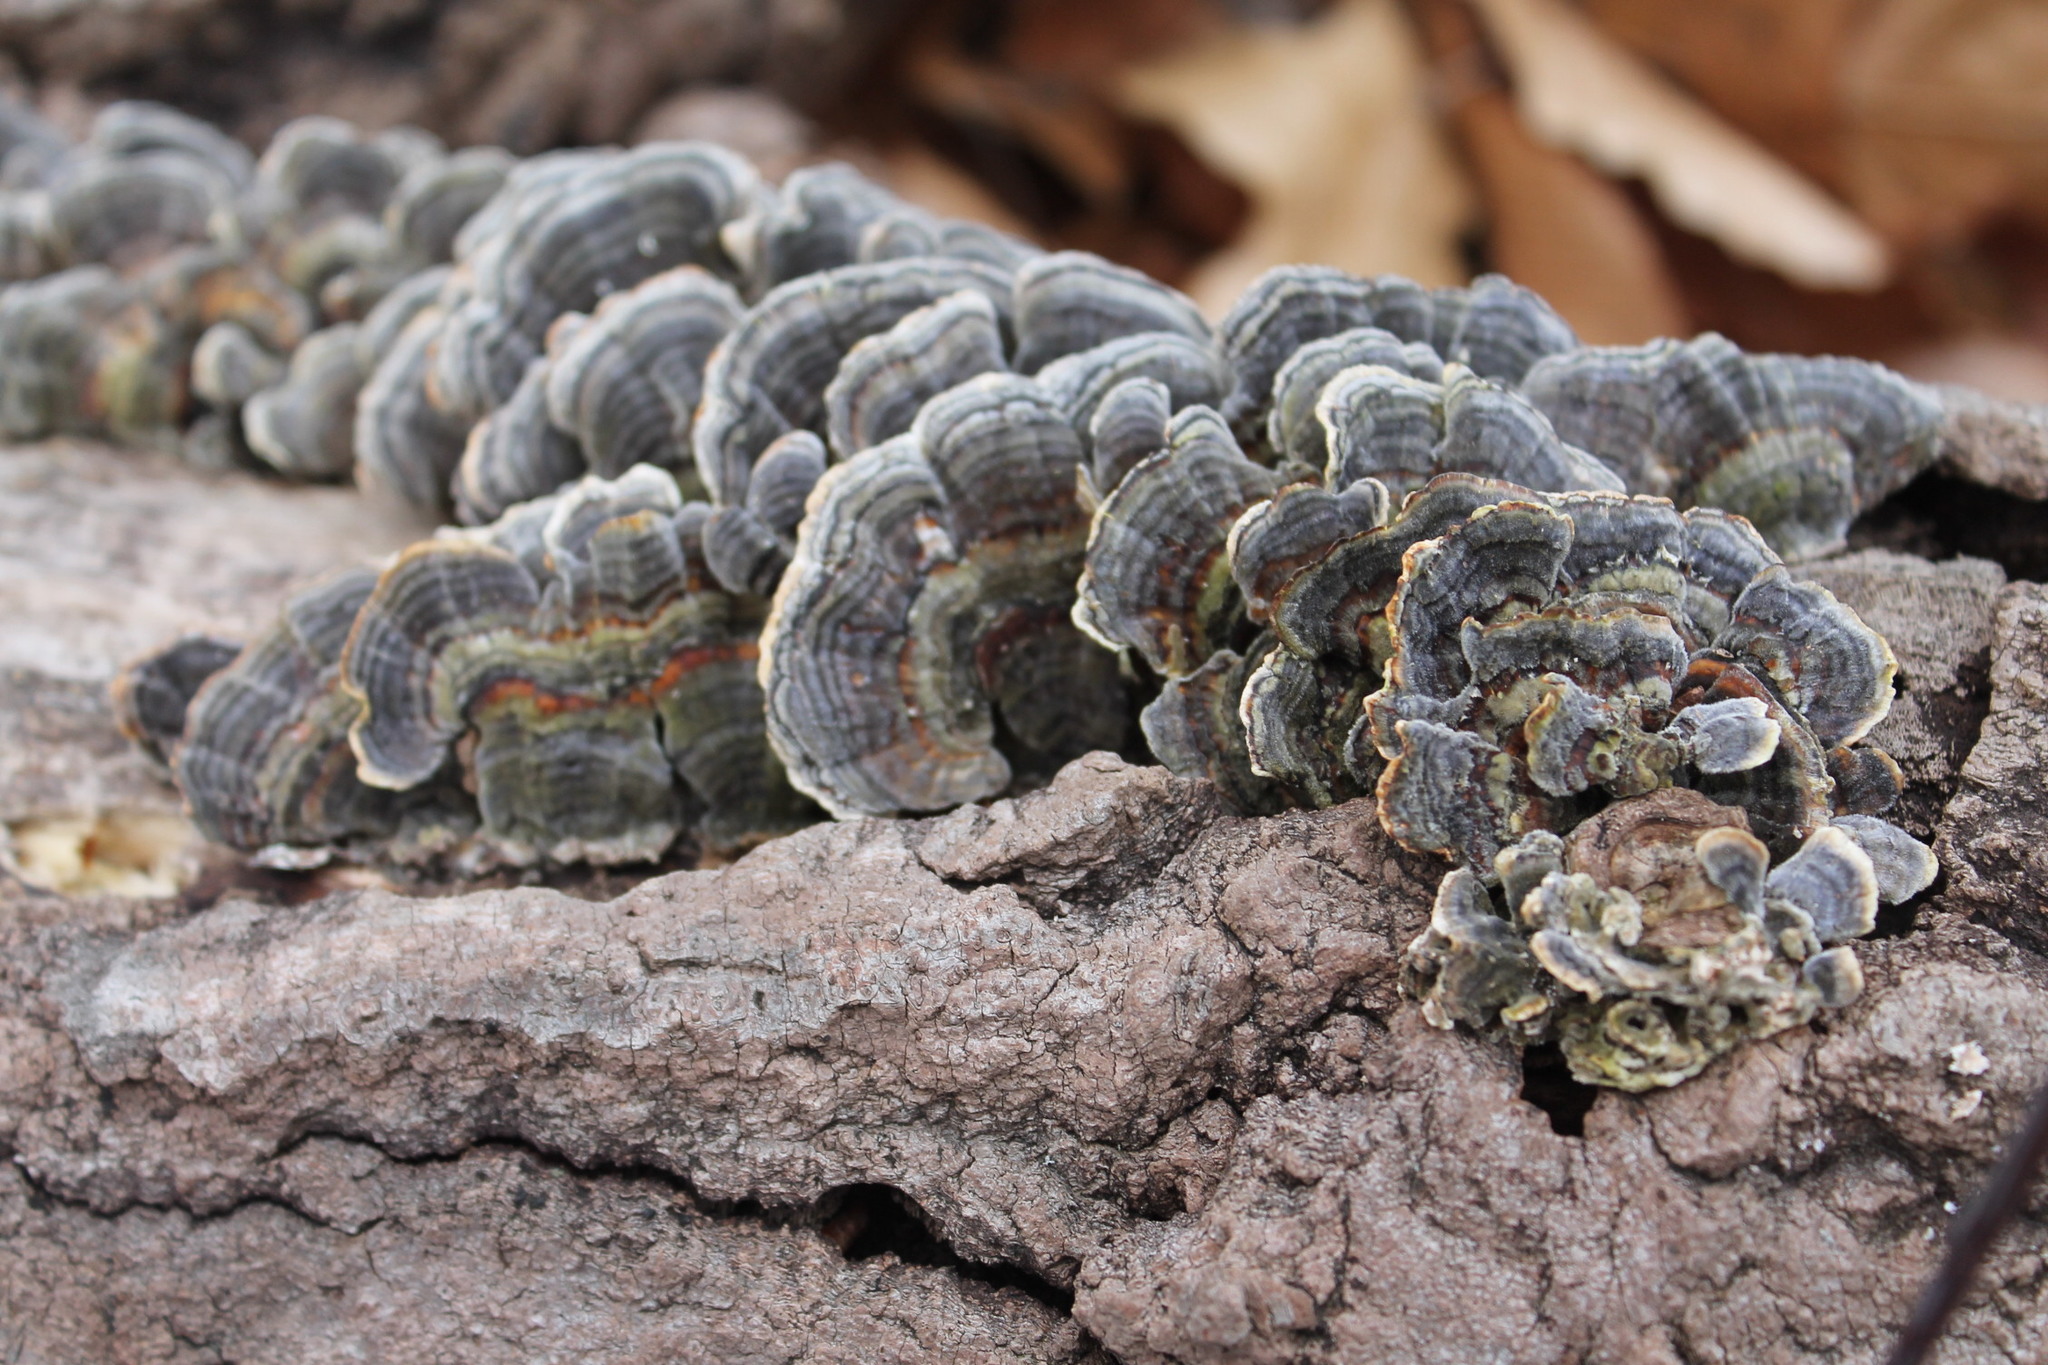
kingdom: Fungi
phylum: Basidiomycota
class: Agaricomycetes
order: Polyporales
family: Polyporaceae
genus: Trametes
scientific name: Trametes versicolor
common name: Turkeytail
